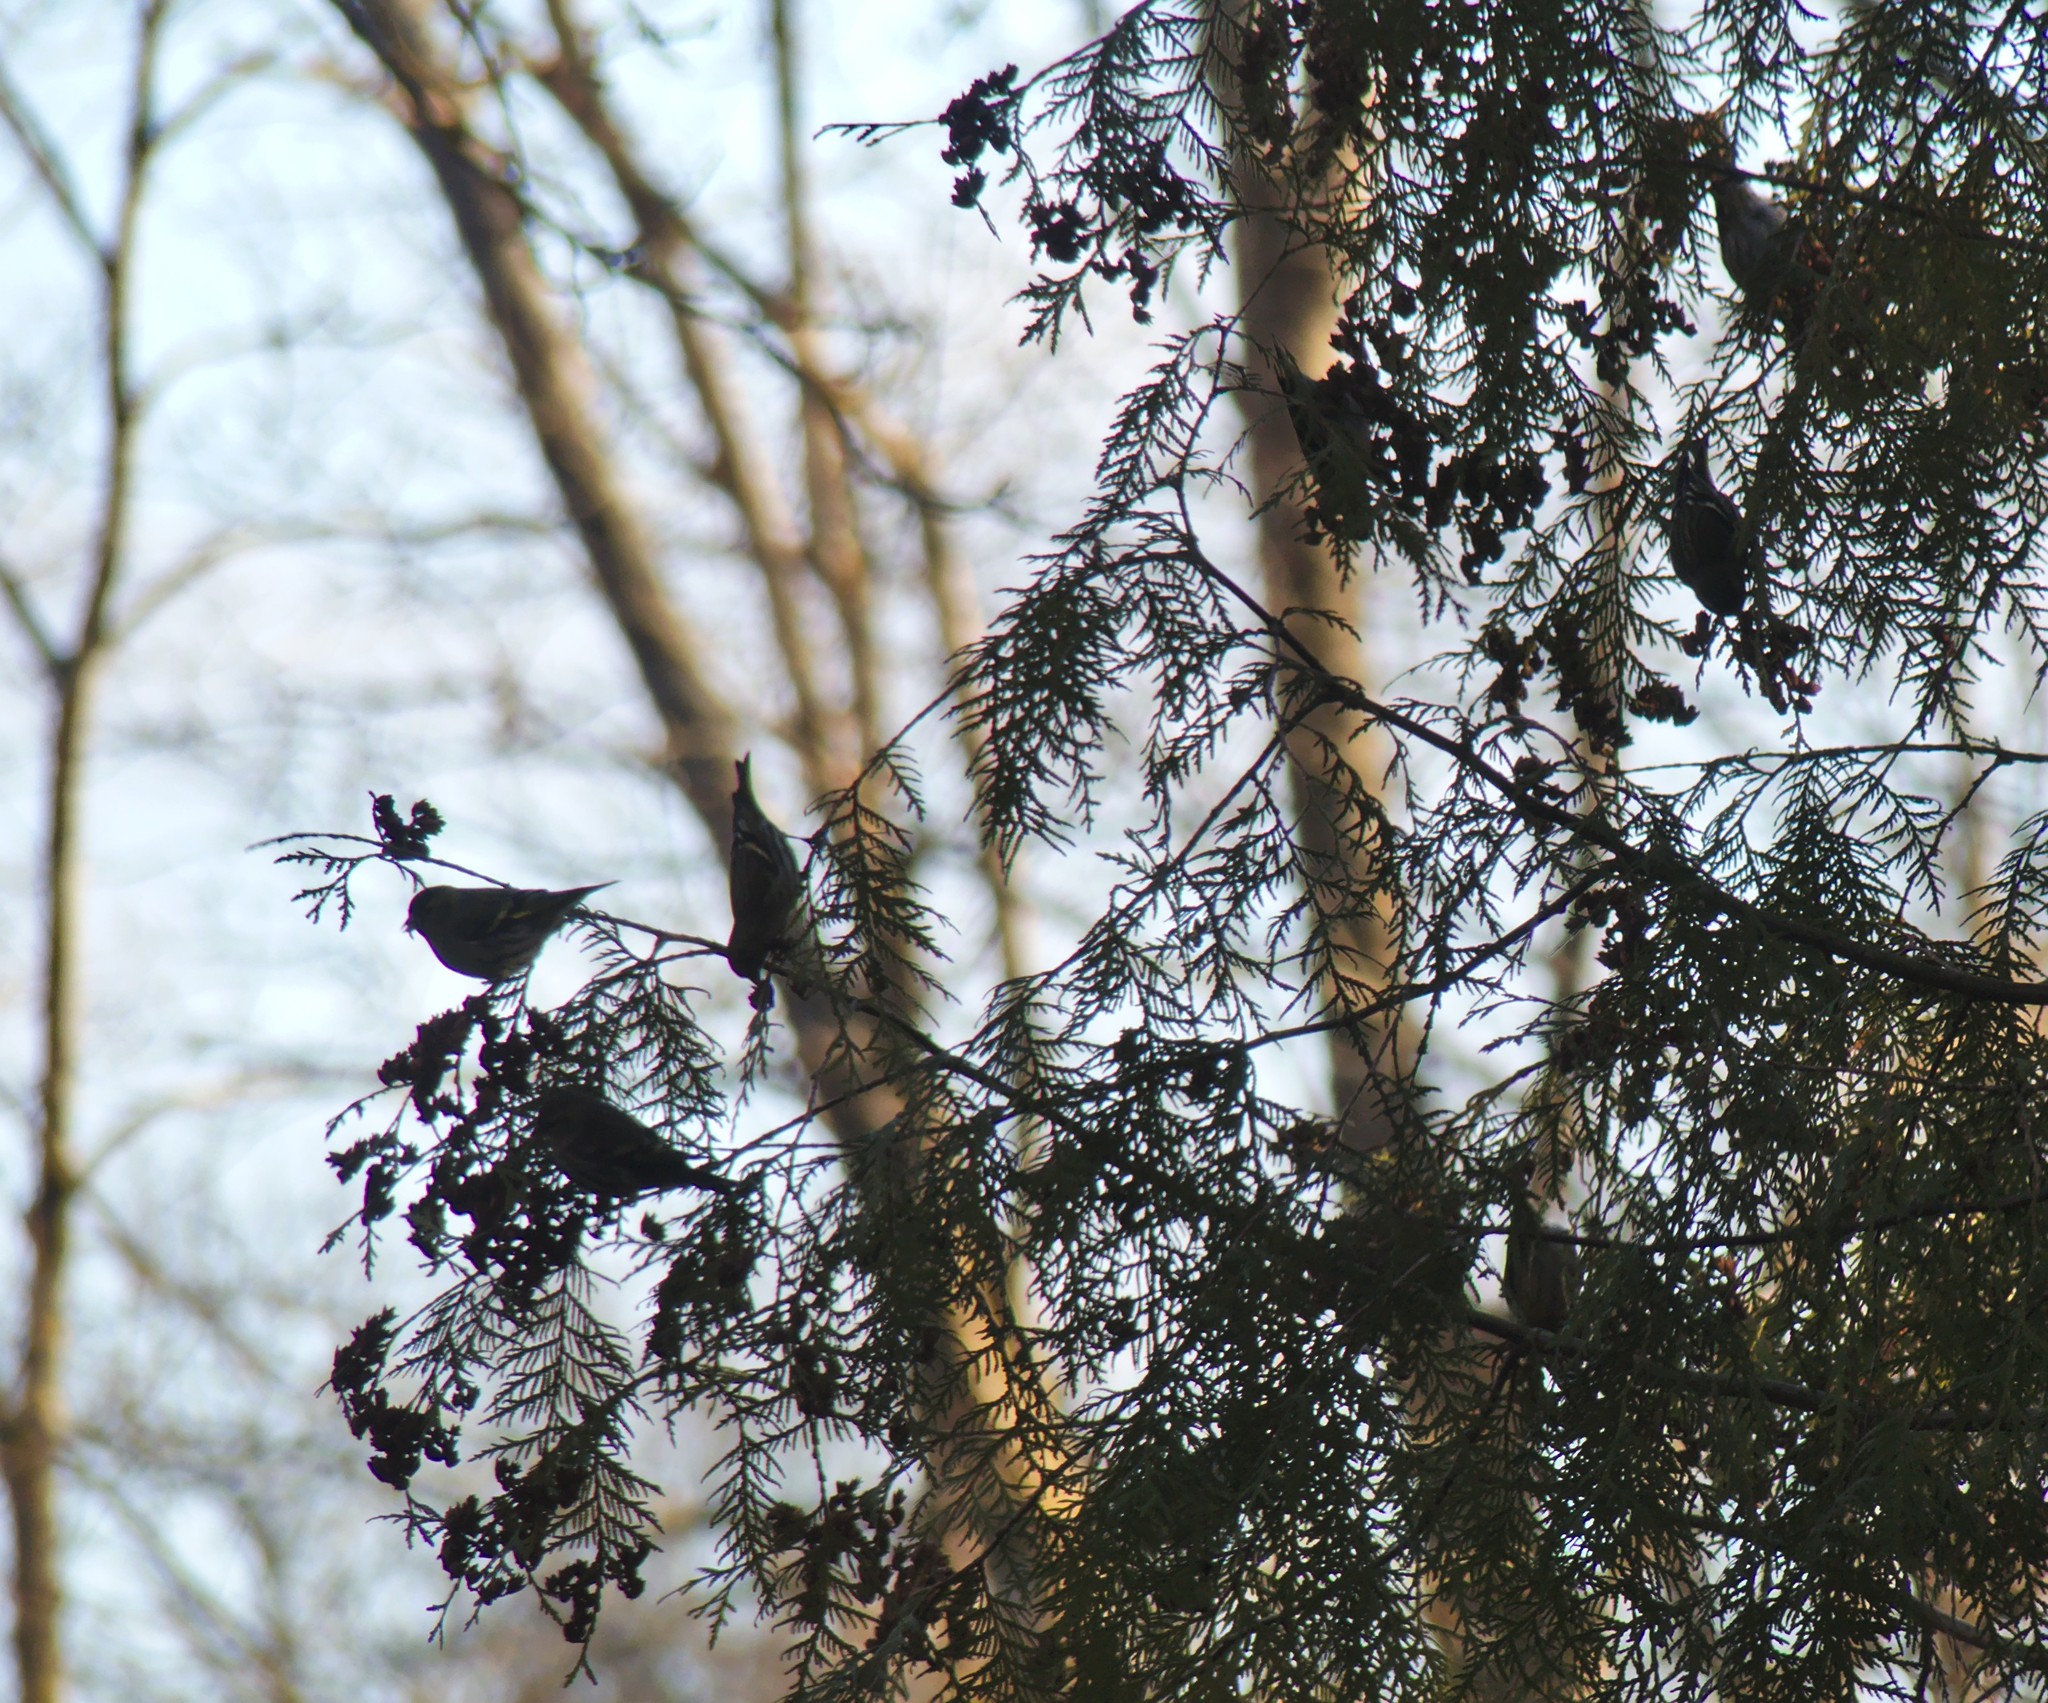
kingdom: Animalia
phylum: Chordata
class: Aves
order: Passeriformes
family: Fringillidae
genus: Spinus
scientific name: Spinus spinus
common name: Eurasian siskin
